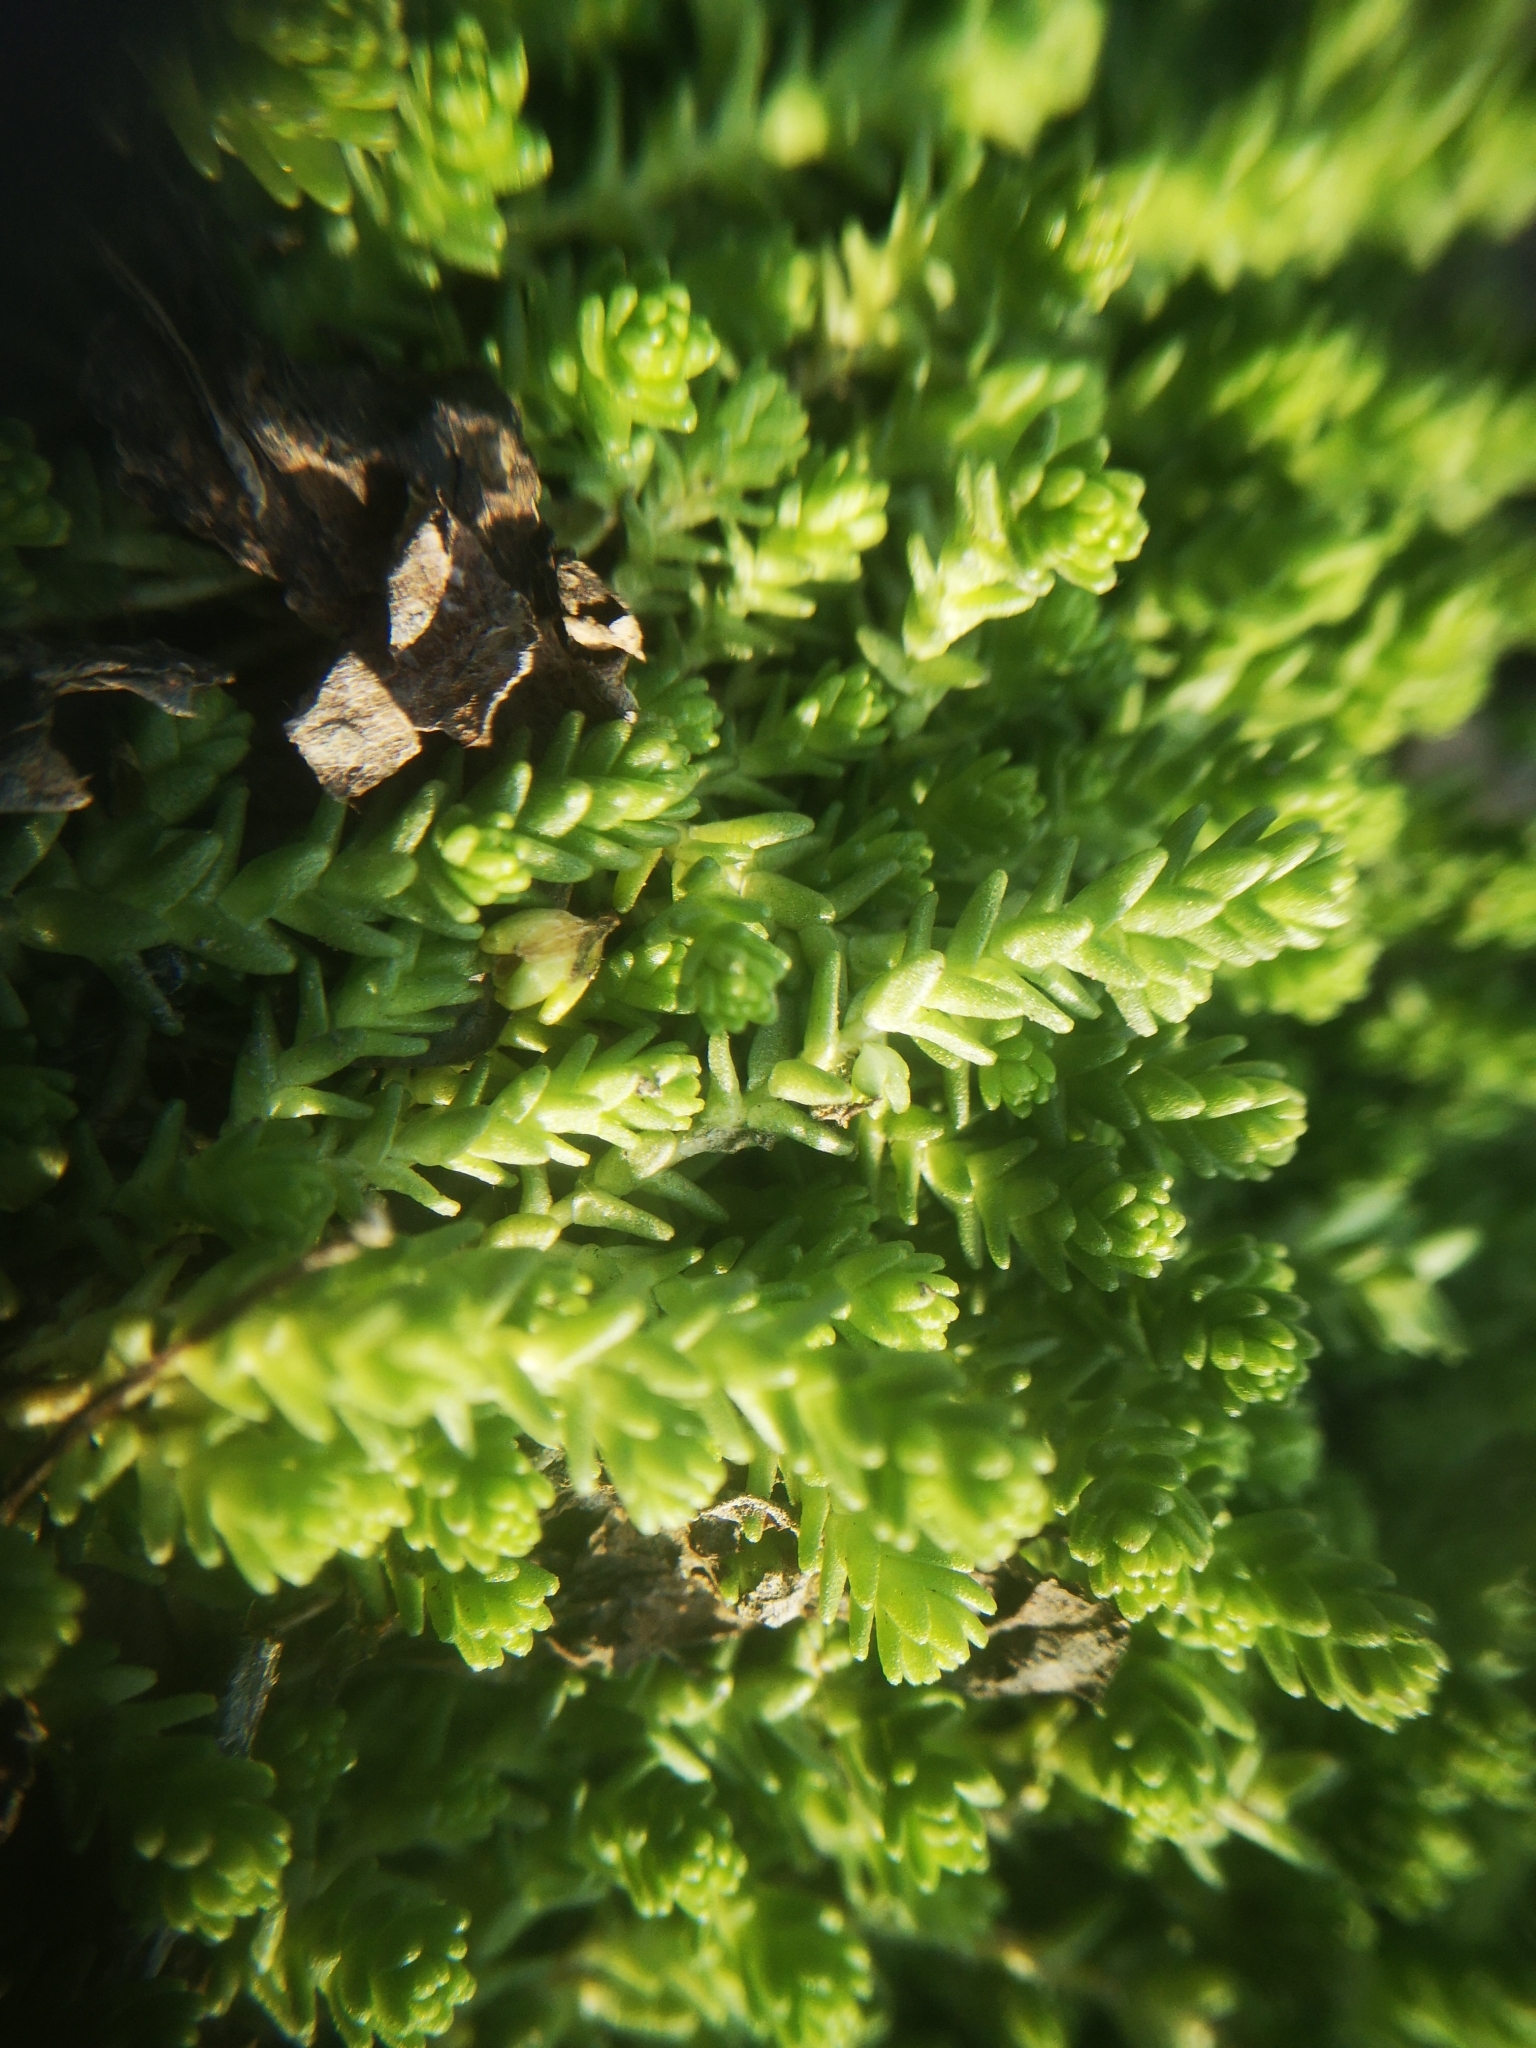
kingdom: Plantae
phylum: Tracheophyta
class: Magnoliopsida
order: Saxifragales
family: Crassulaceae
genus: Sedum
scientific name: Sedum acre
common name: Biting stonecrop
